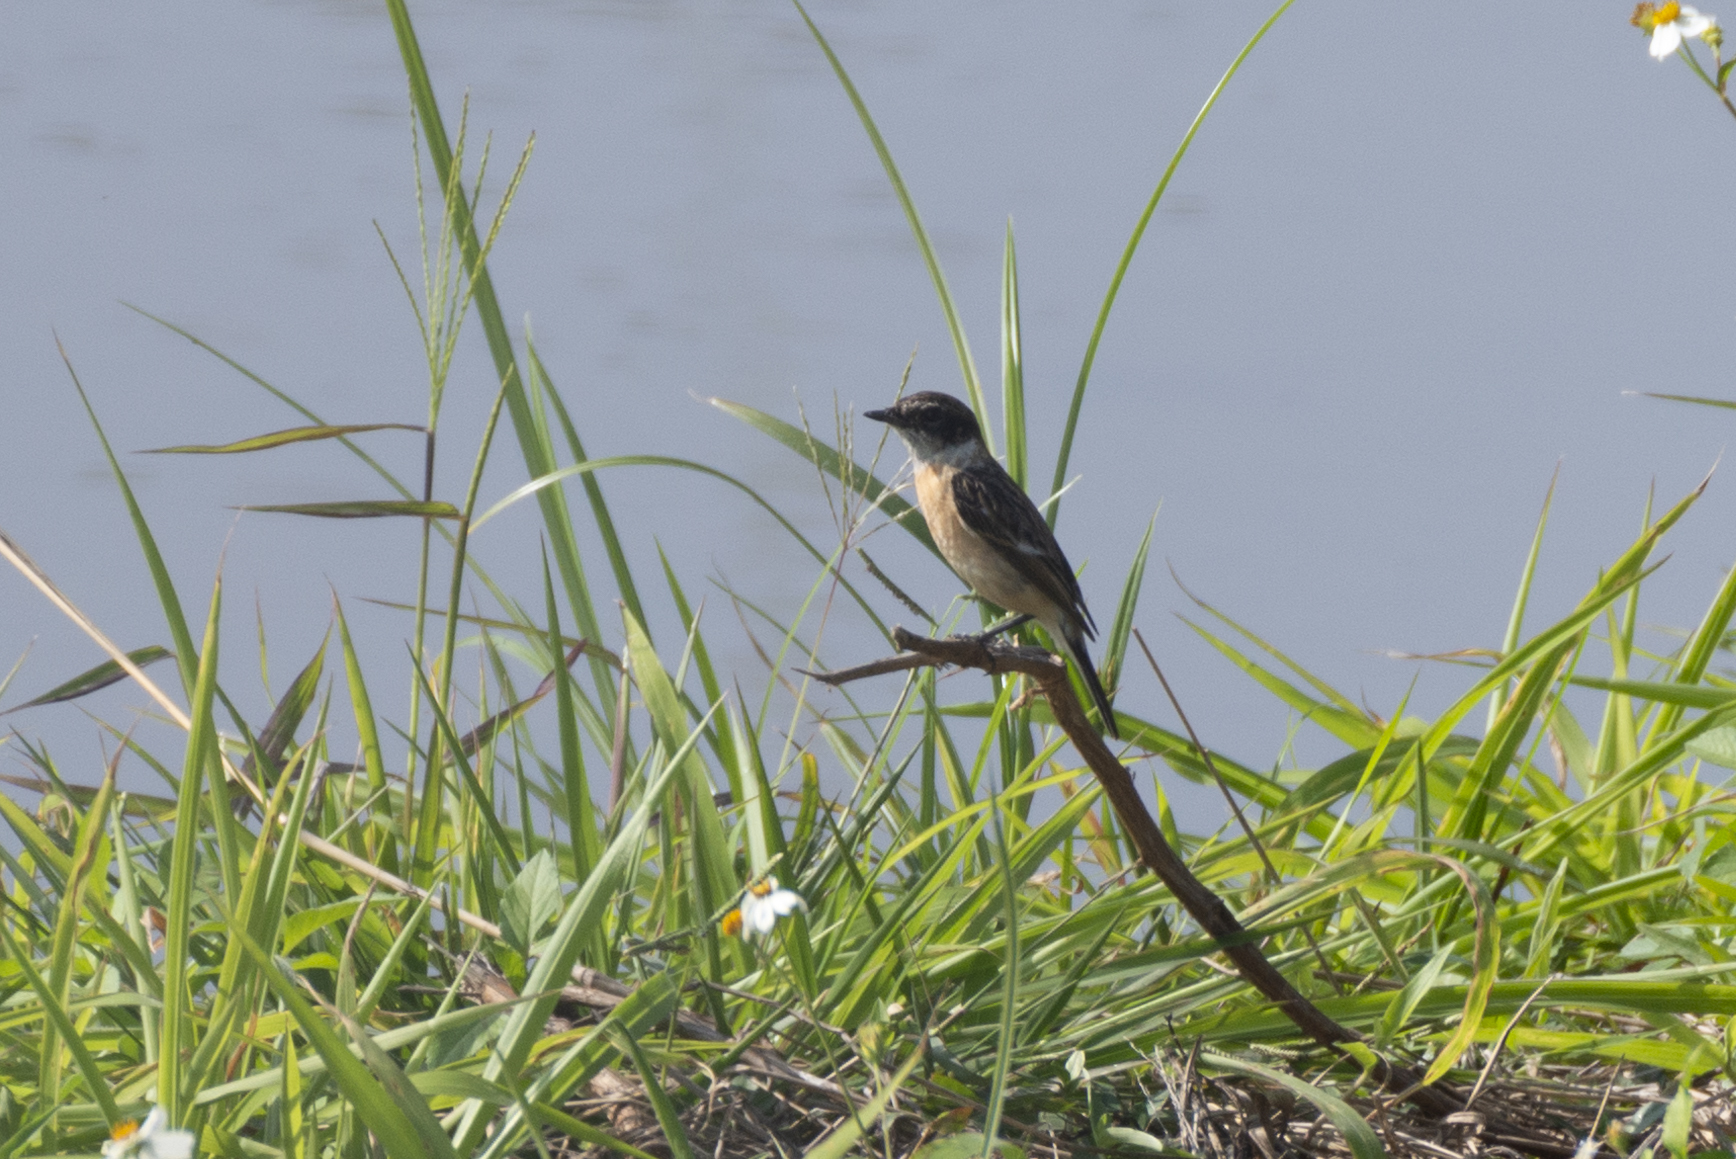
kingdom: Animalia
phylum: Chordata
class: Aves
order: Passeriformes
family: Muscicapidae
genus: Saxicola
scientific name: Saxicola maurus
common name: Siberian stonechat
